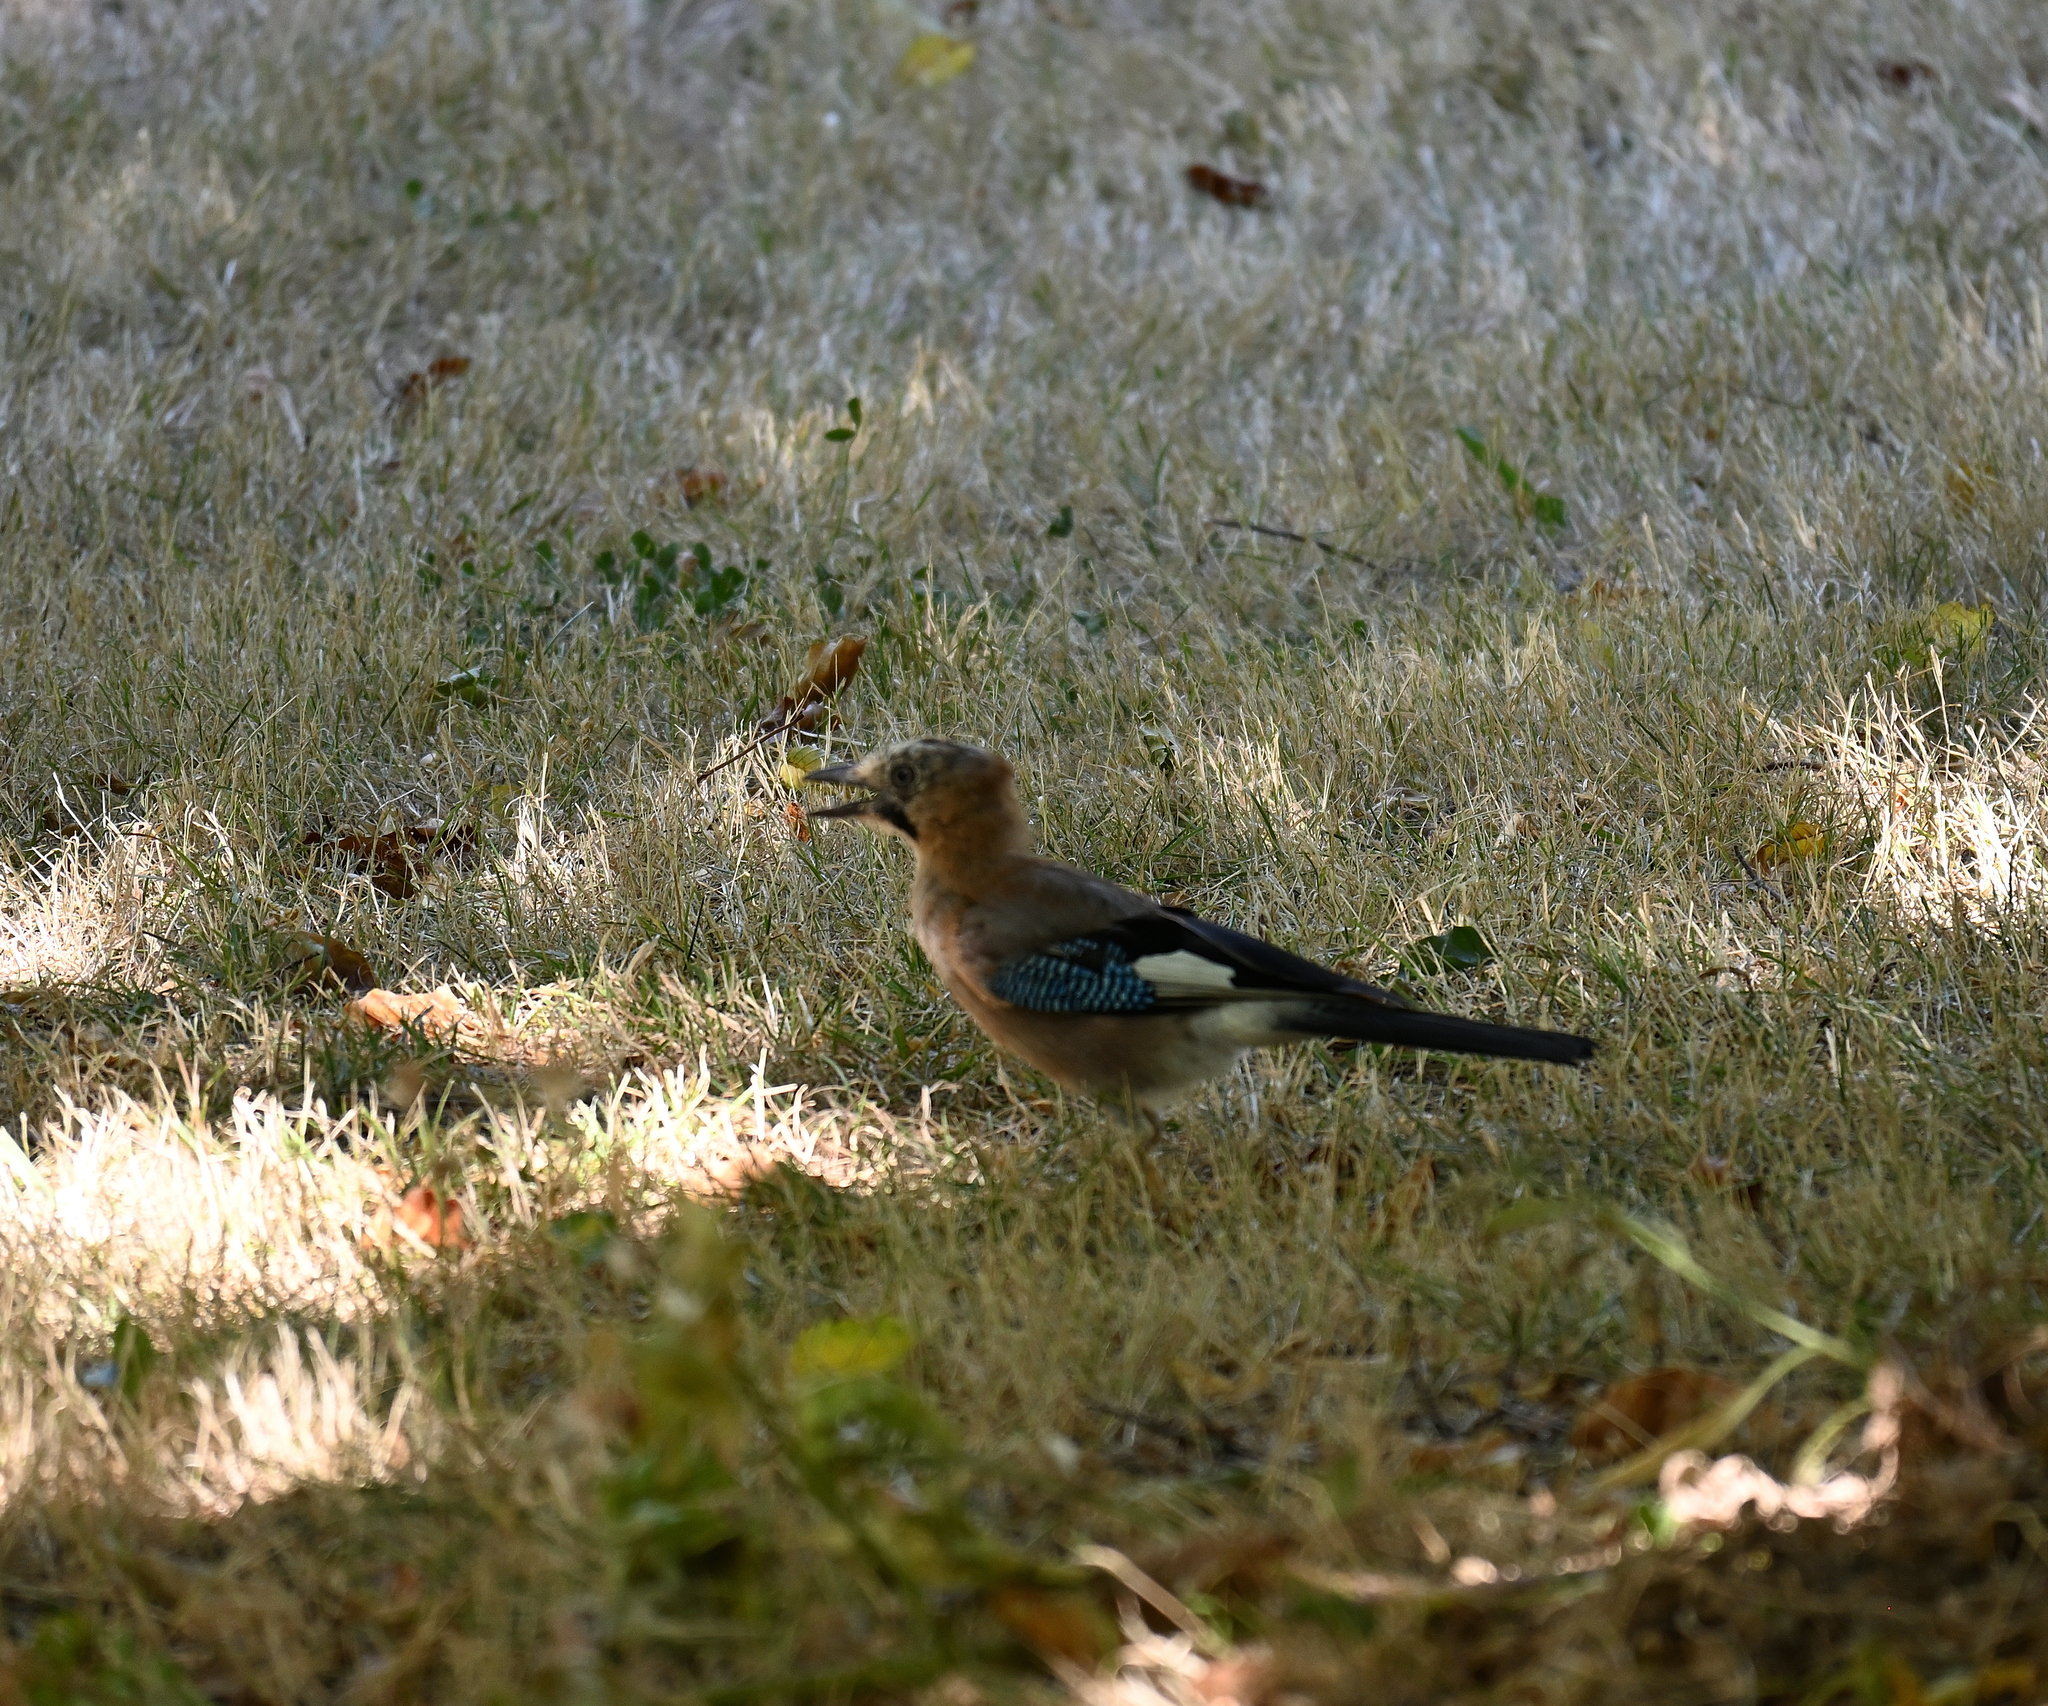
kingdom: Animalia
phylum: Chordata
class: Aves
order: Passeriformes
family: Corvidae
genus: Garrulus
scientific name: Garrulus glandarius
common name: Eurasian jay
